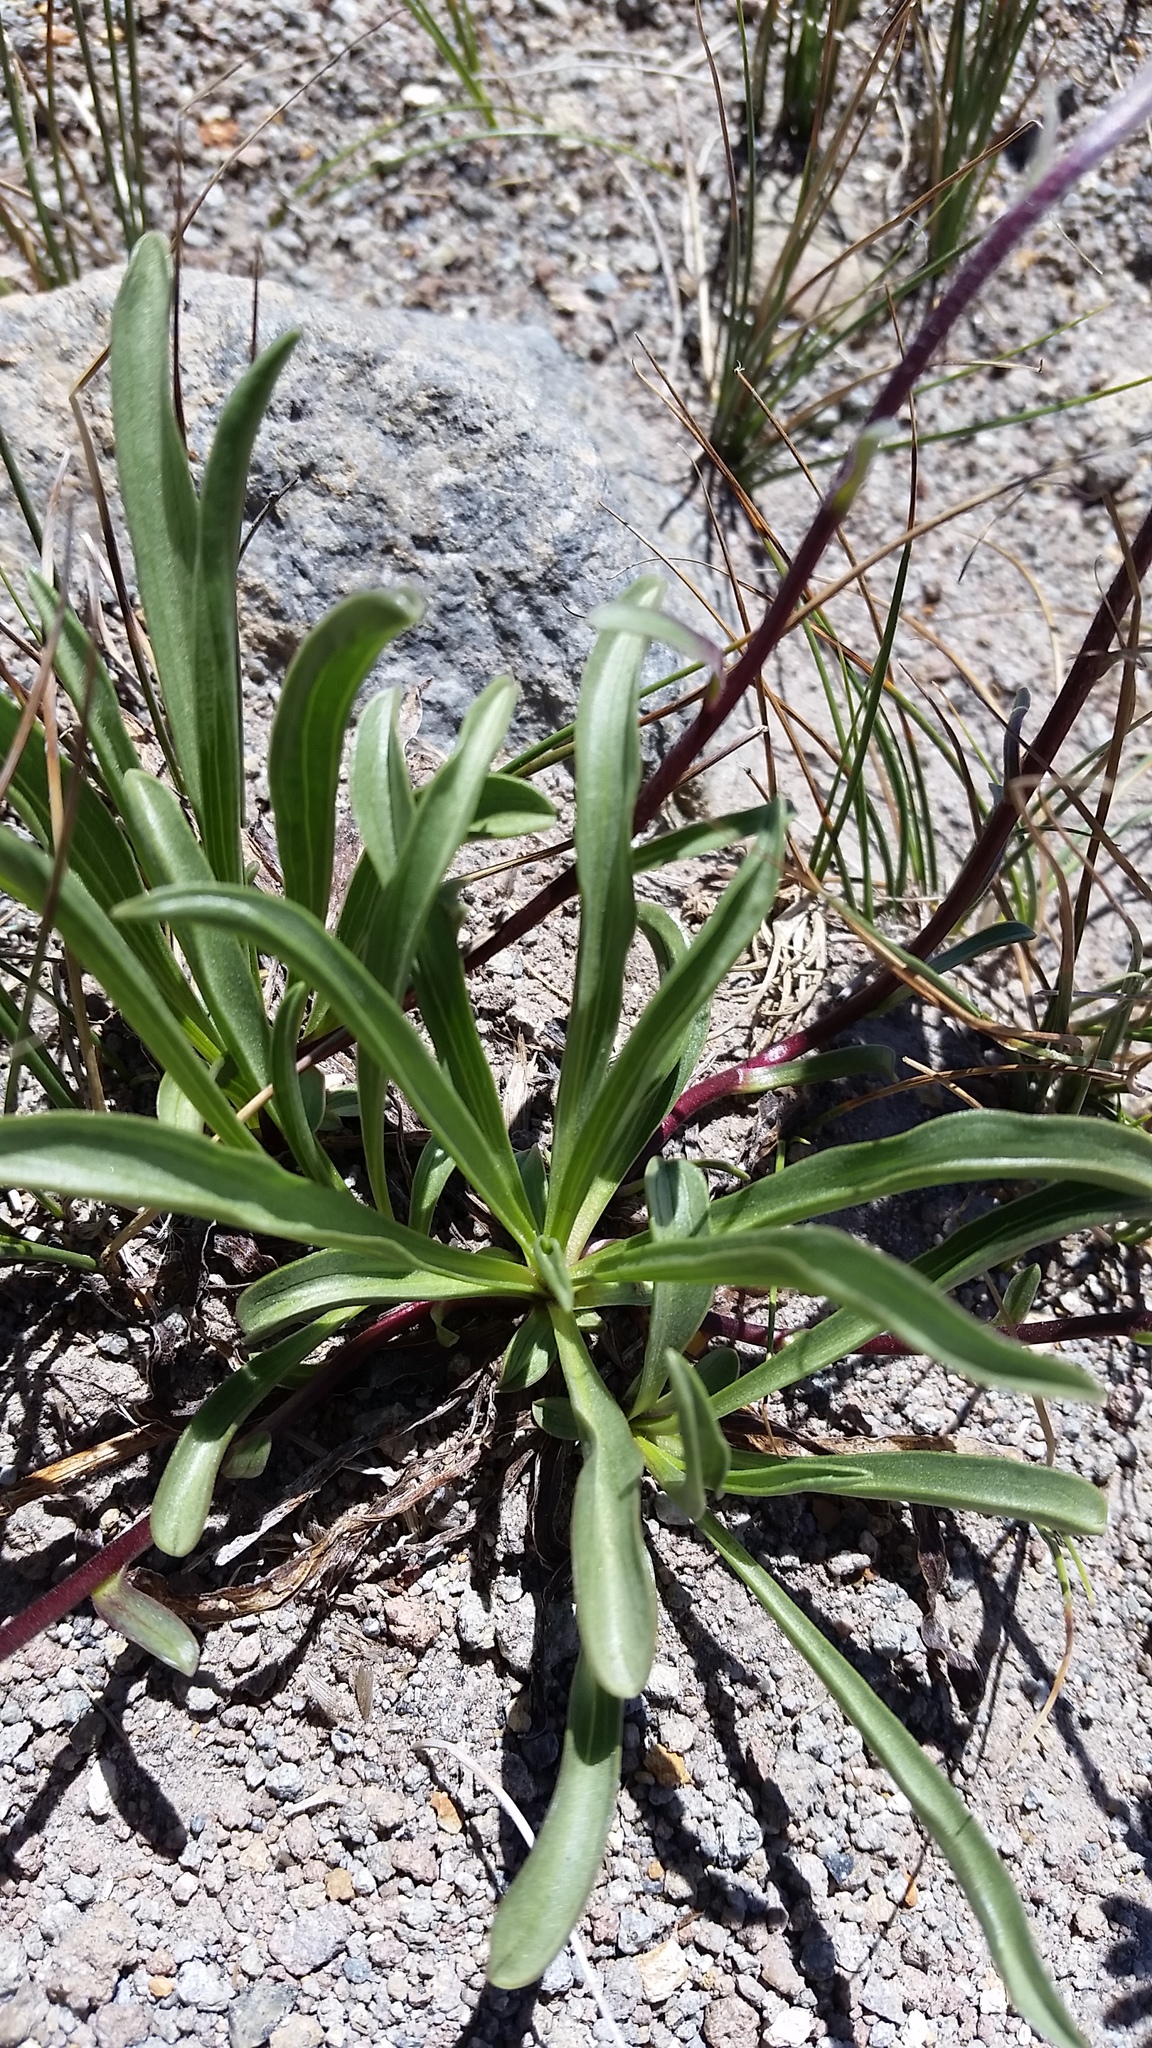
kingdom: Plantae
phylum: Tracheophyta
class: Magnoliopsida
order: Asterales
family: Asteraceae
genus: Oreostemma
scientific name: Oreostemma alpigenum
